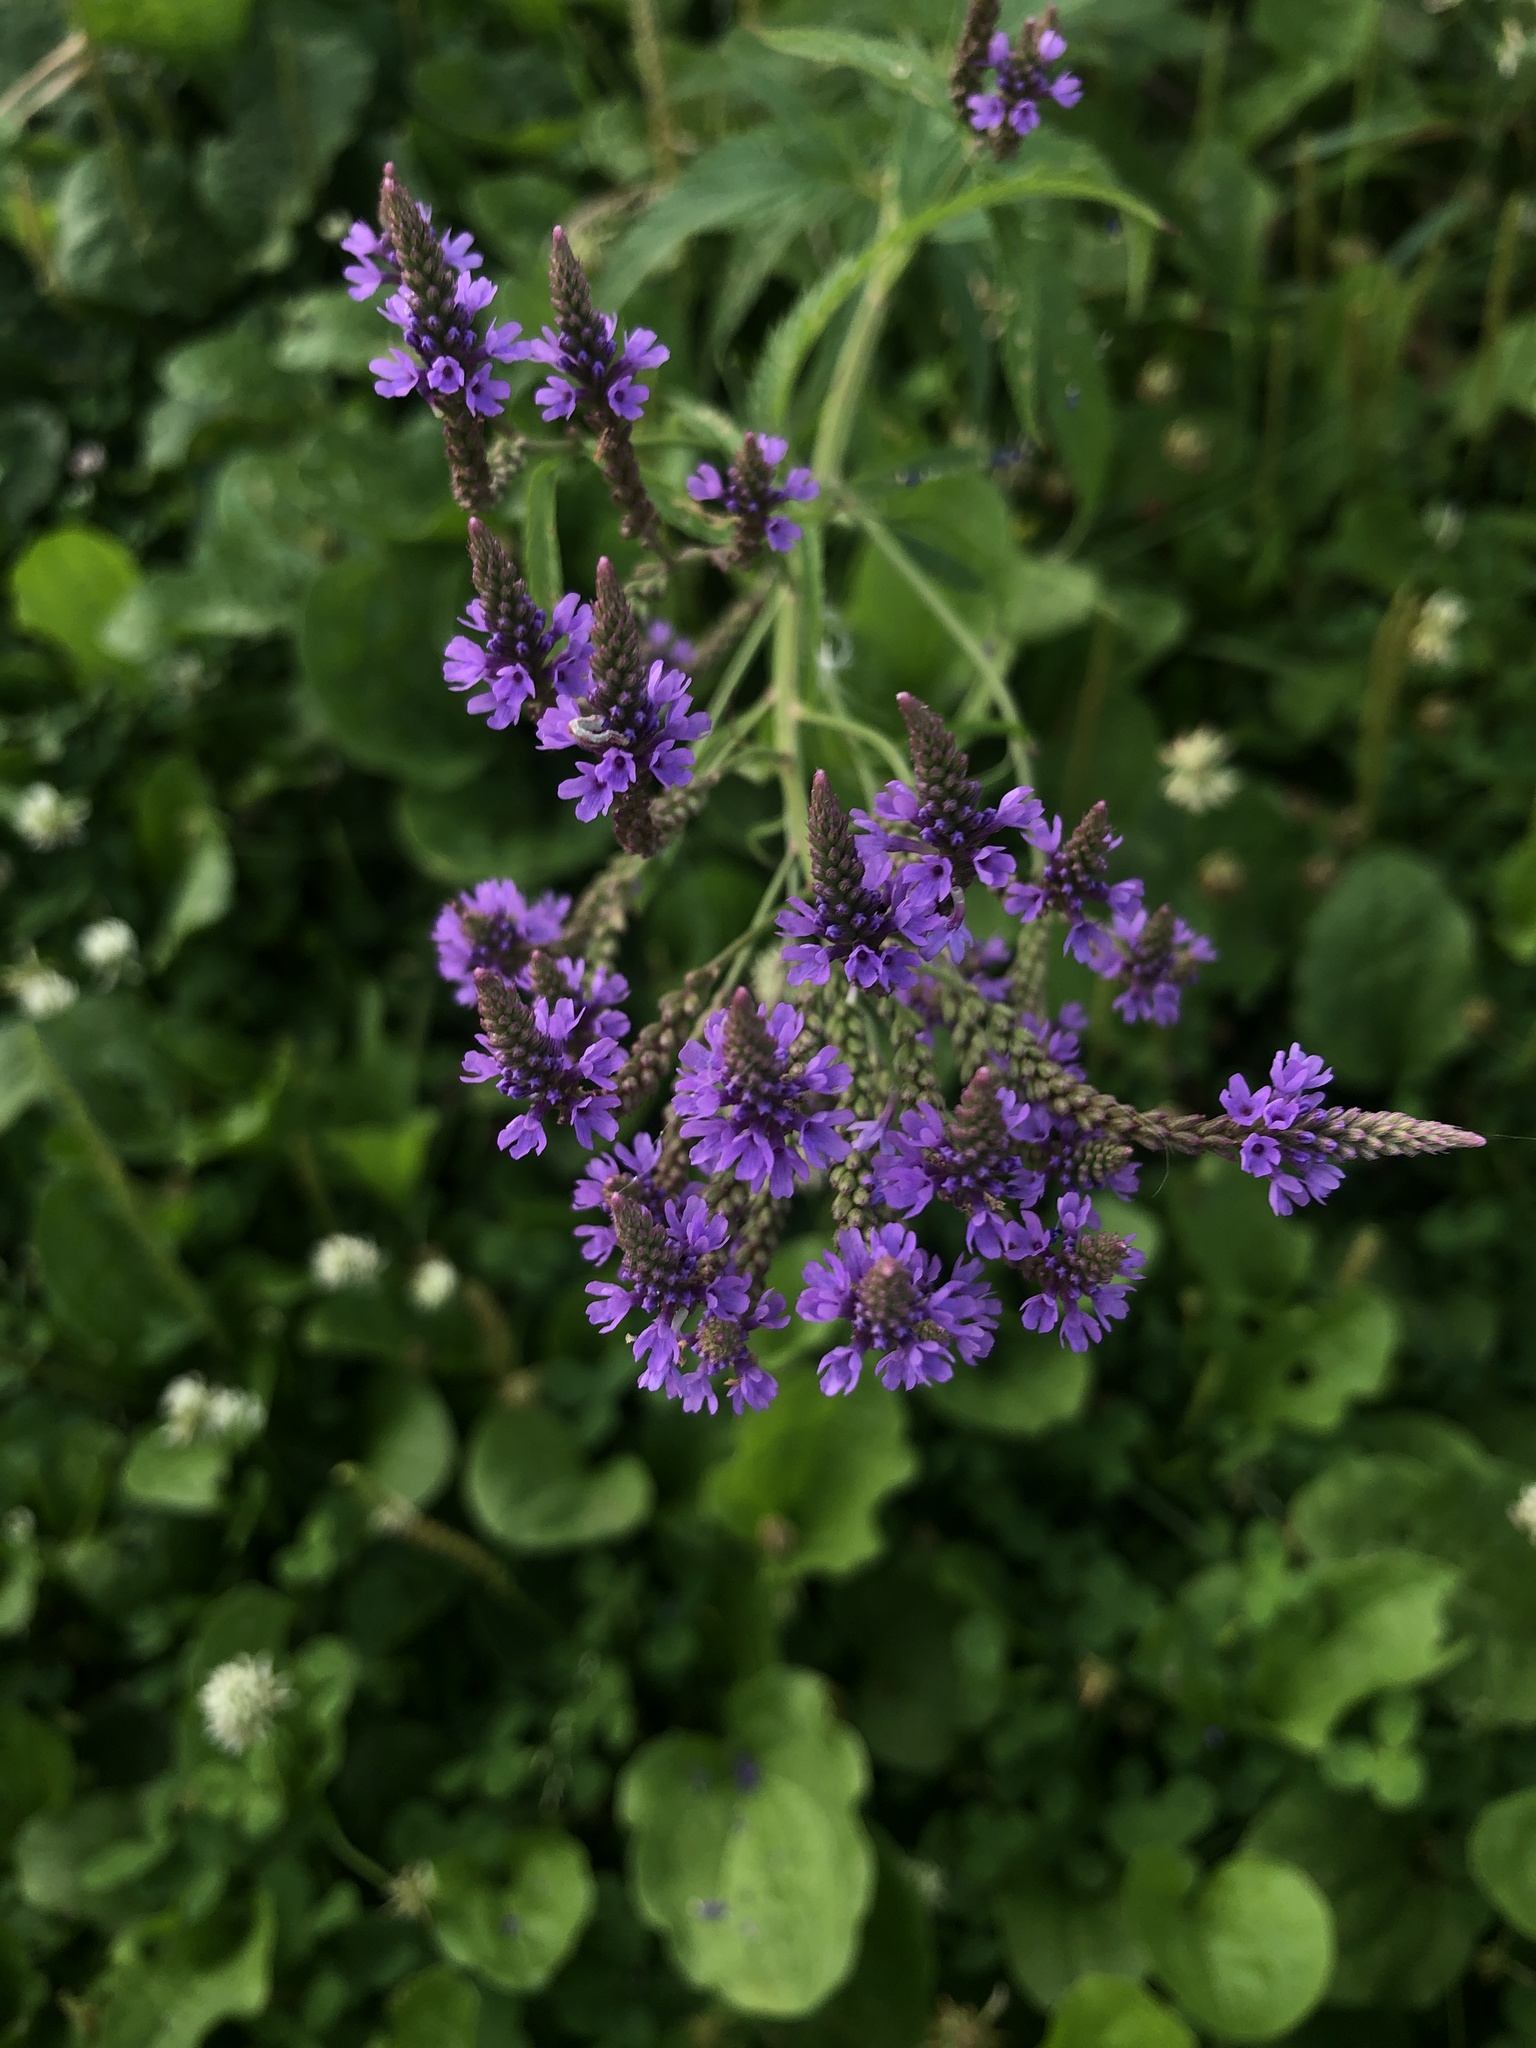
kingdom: Plantae
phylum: Tracheophyta
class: Magnoliopsida
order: Lamiales
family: Verbenaceae
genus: Verbena
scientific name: Verbena hastata
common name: American blue vervain
